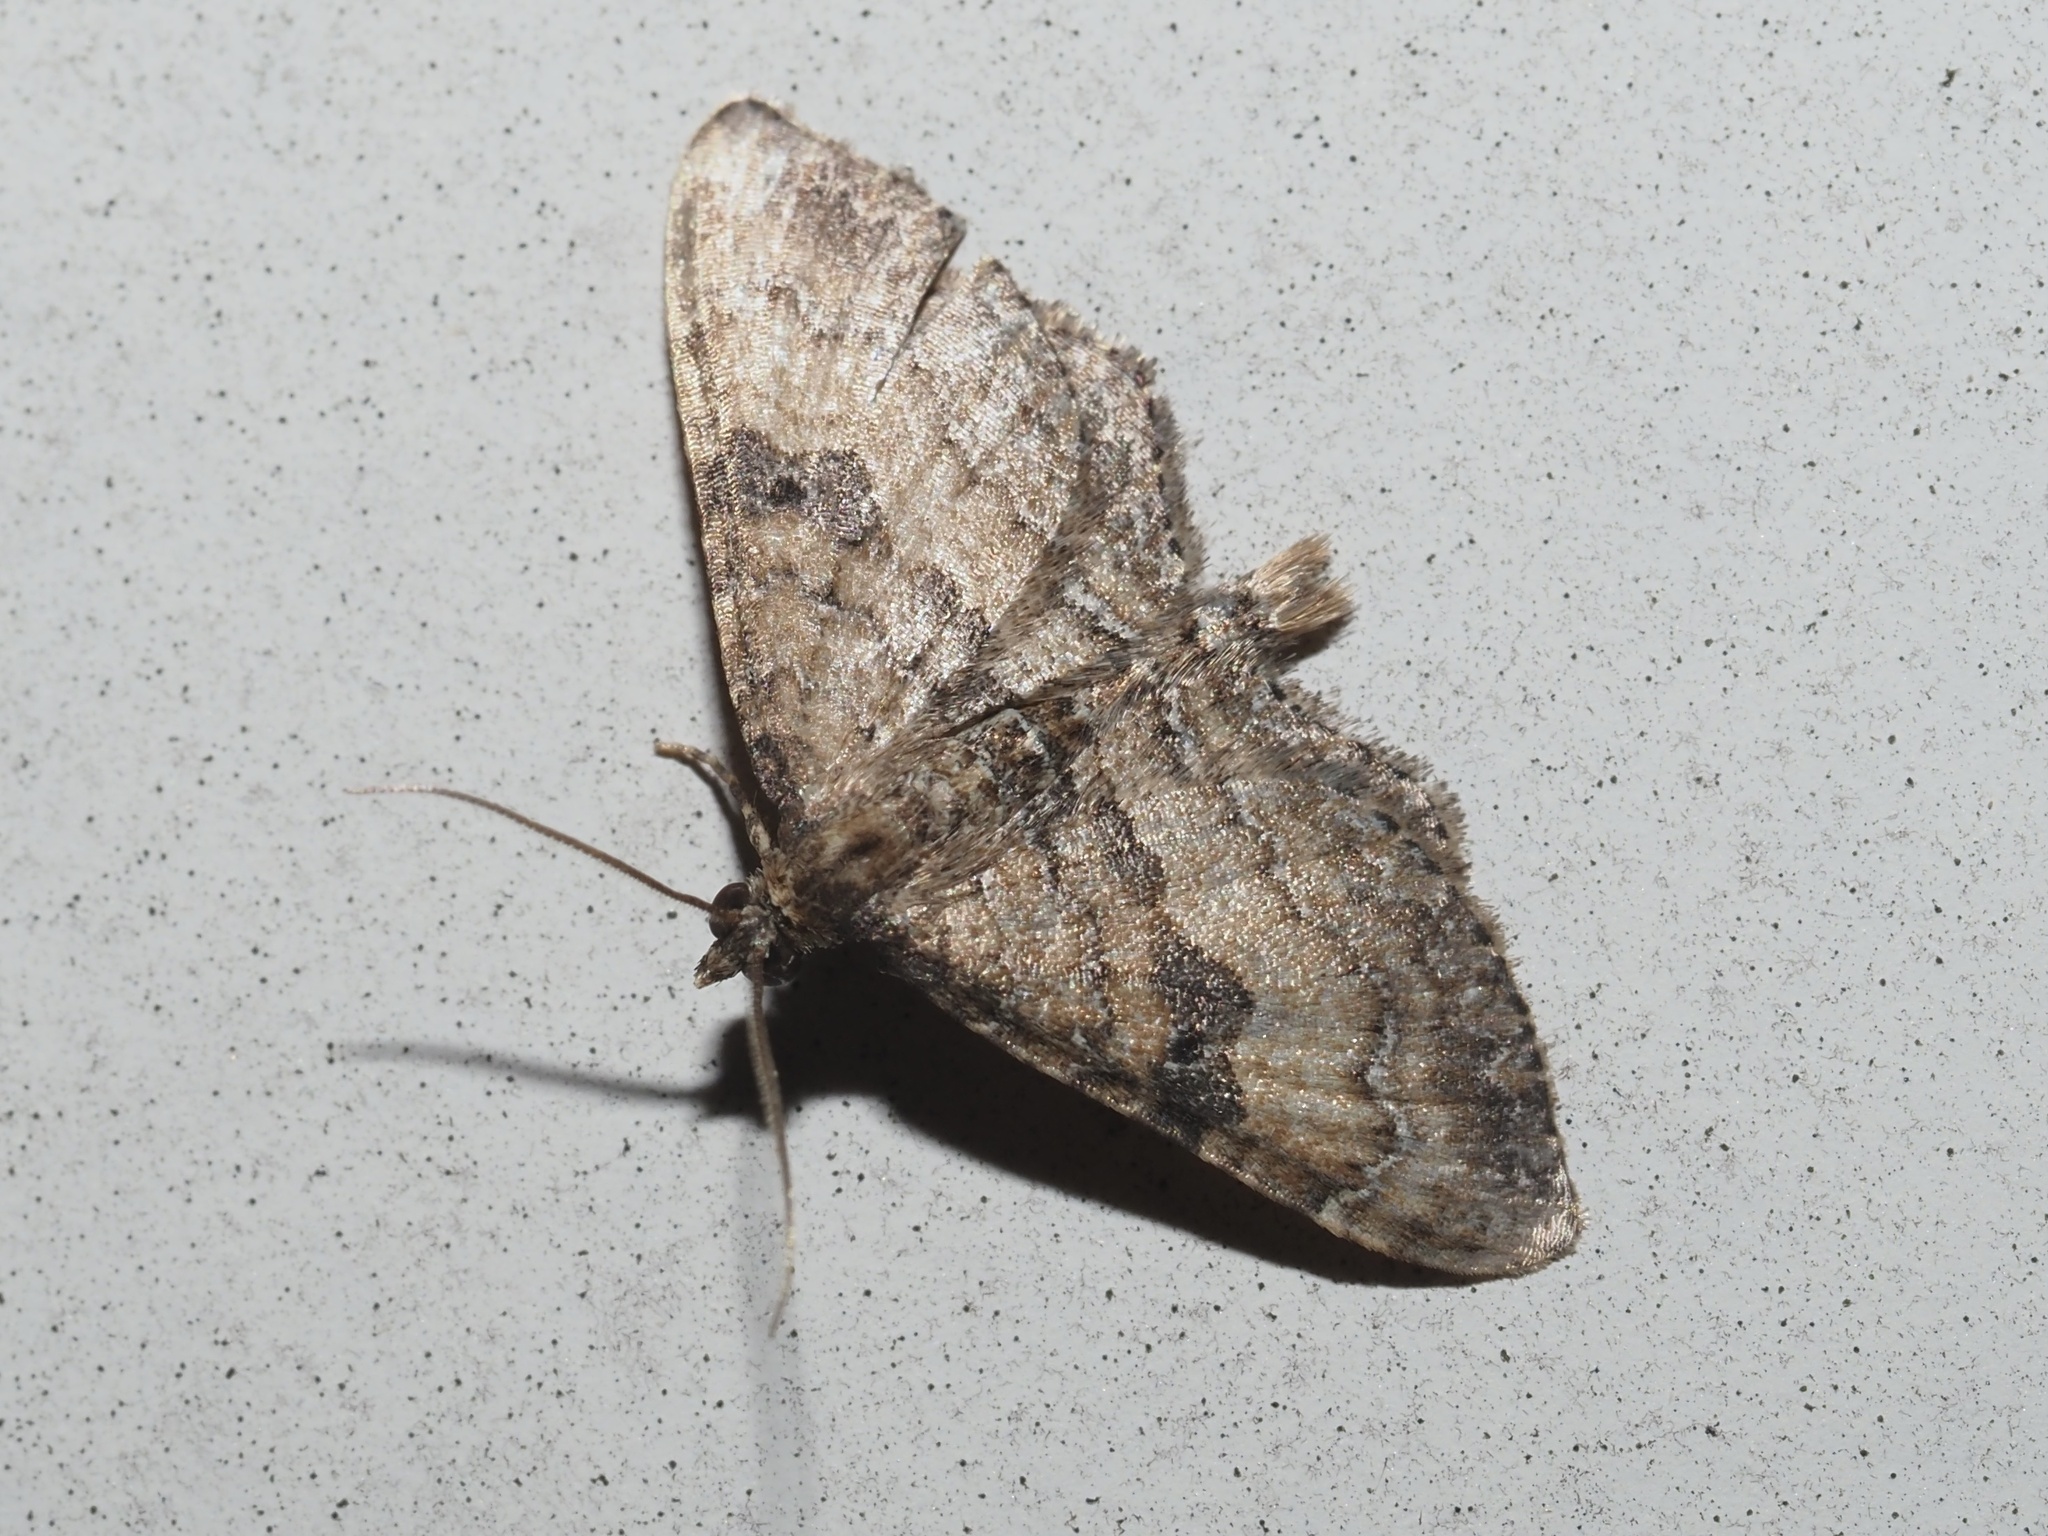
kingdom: Animalia
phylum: Arthropoda
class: Insecta
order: Lepidoptera
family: Geometridae
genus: Orthonama
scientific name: Orthonama obstipata
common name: The gem
